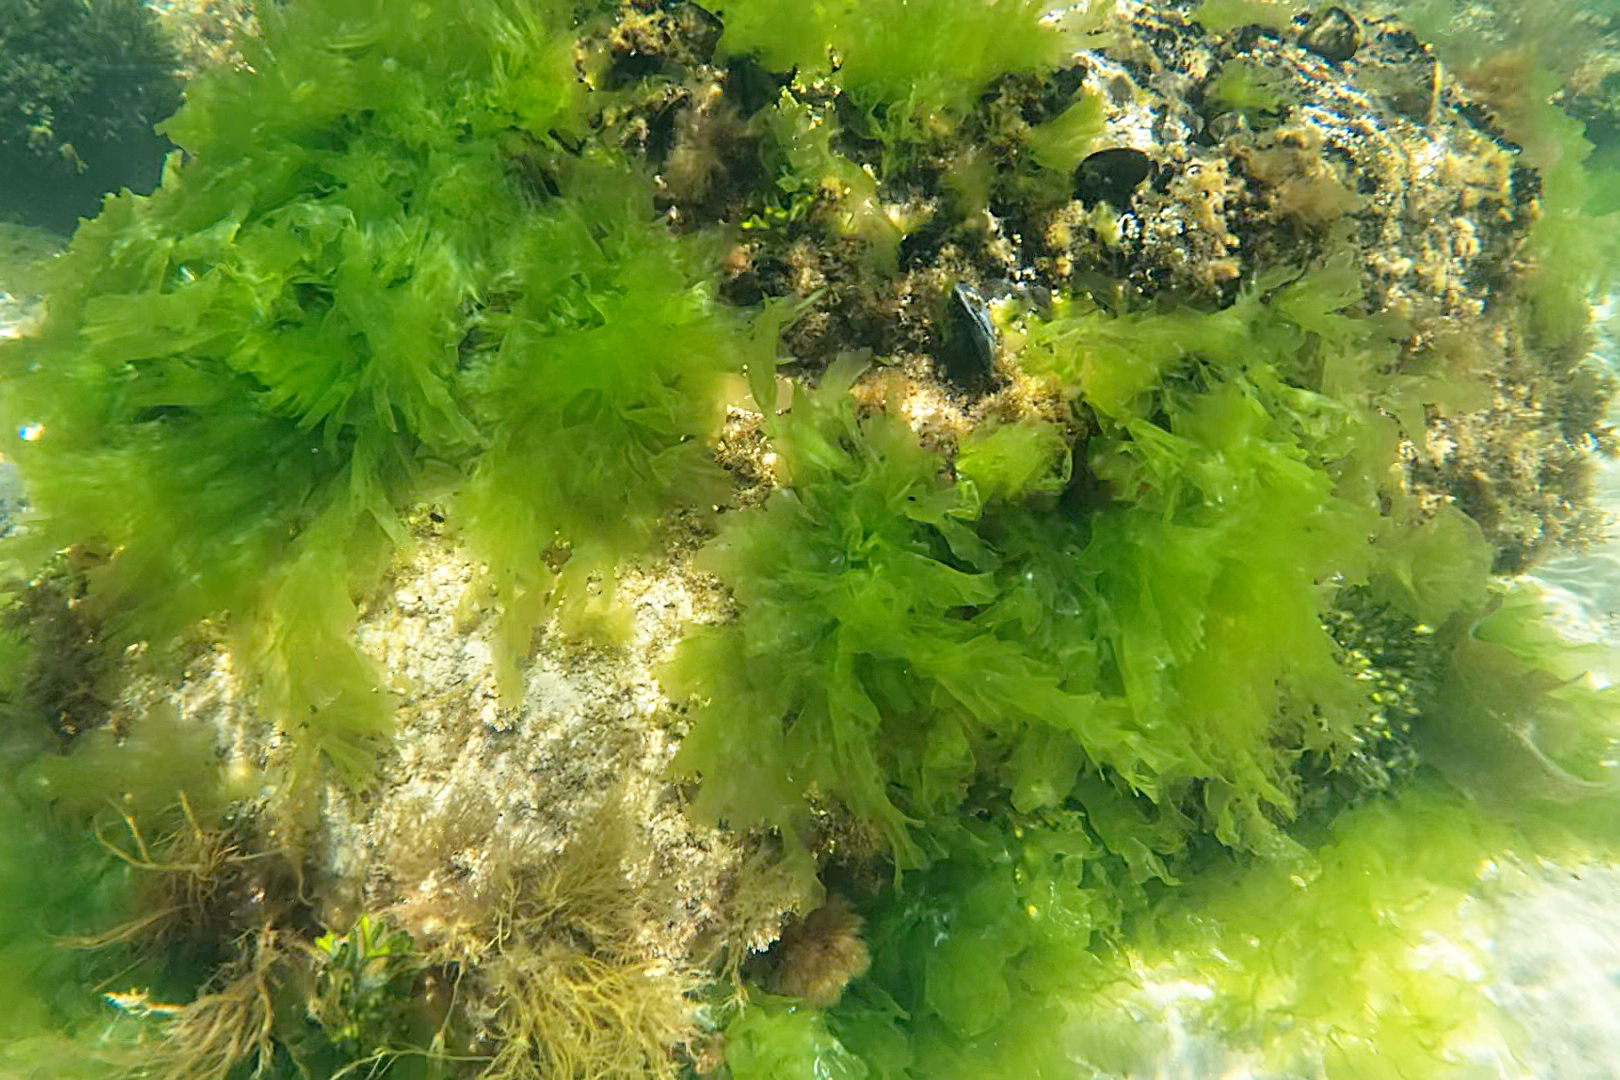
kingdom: Plantae
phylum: Chlorophyta
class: Ulvophyceae
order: Ulvales
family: Ulvaceae
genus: Ulva
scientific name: Ulva lactuca
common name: Sea lettuce
